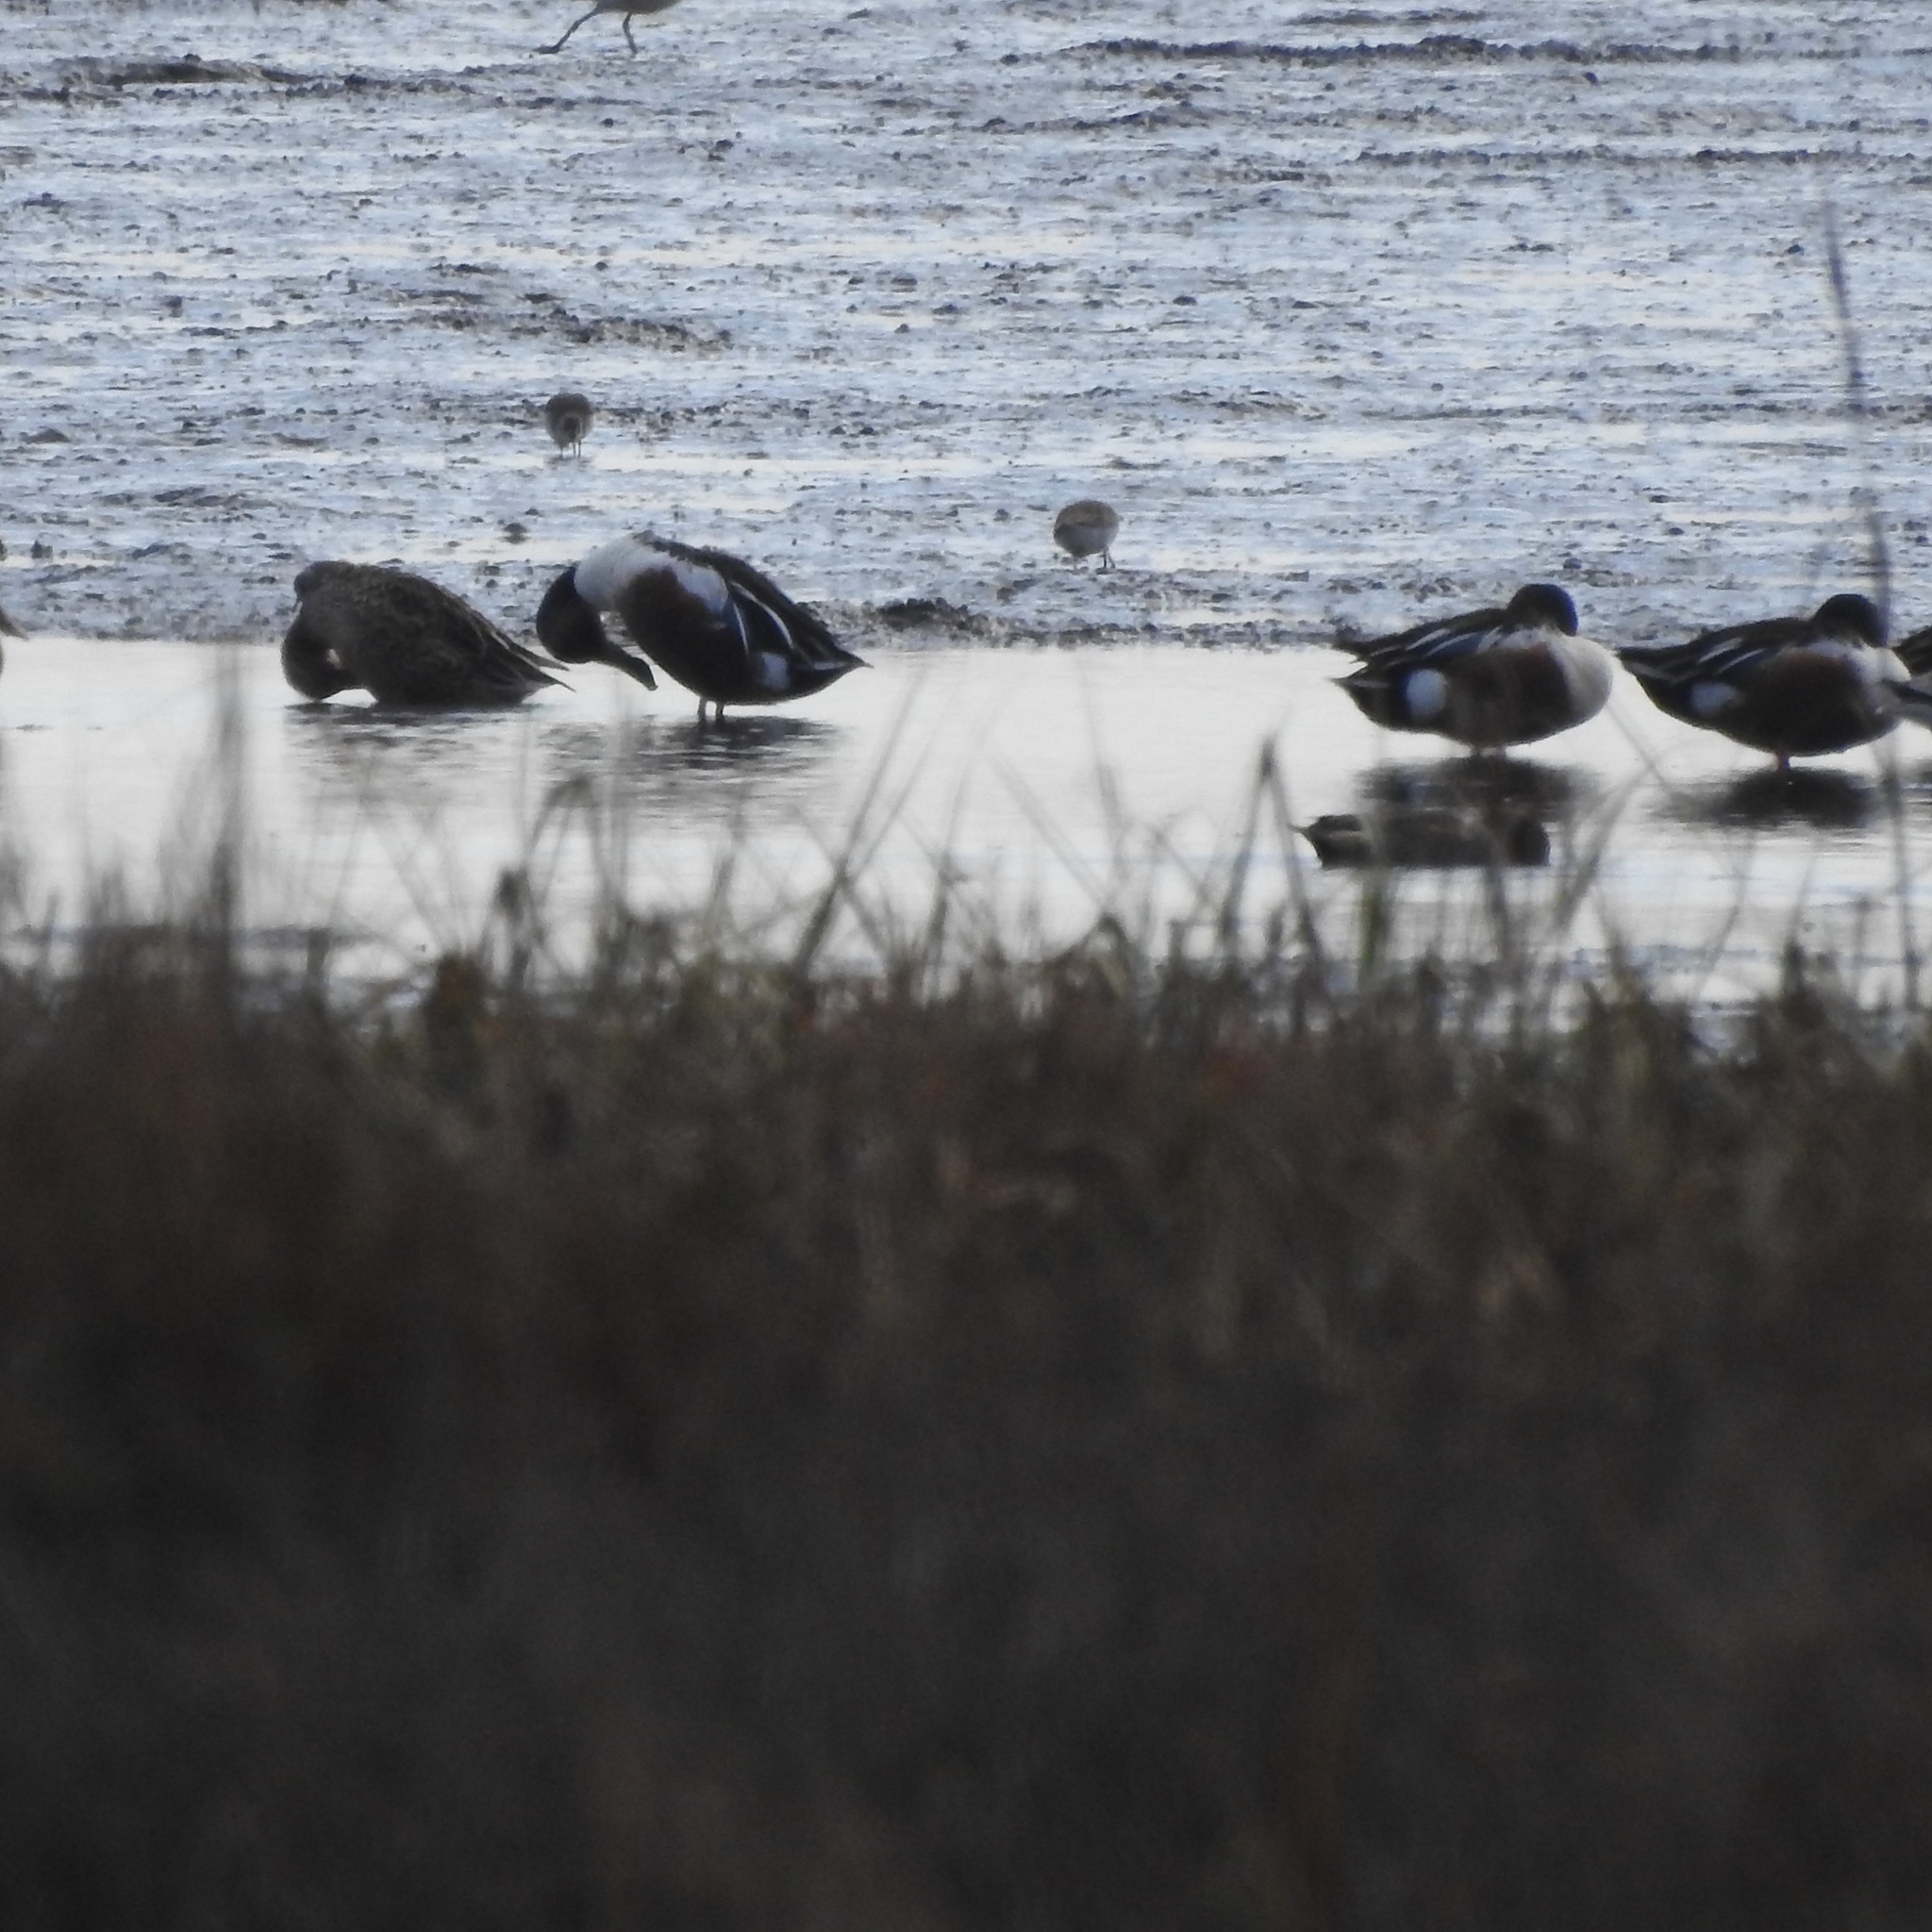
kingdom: Animalia
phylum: Chordata
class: Aves
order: Anseriformes
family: Anatidae
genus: Spatula
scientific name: Spatula clypeata
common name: Northern shoveler
